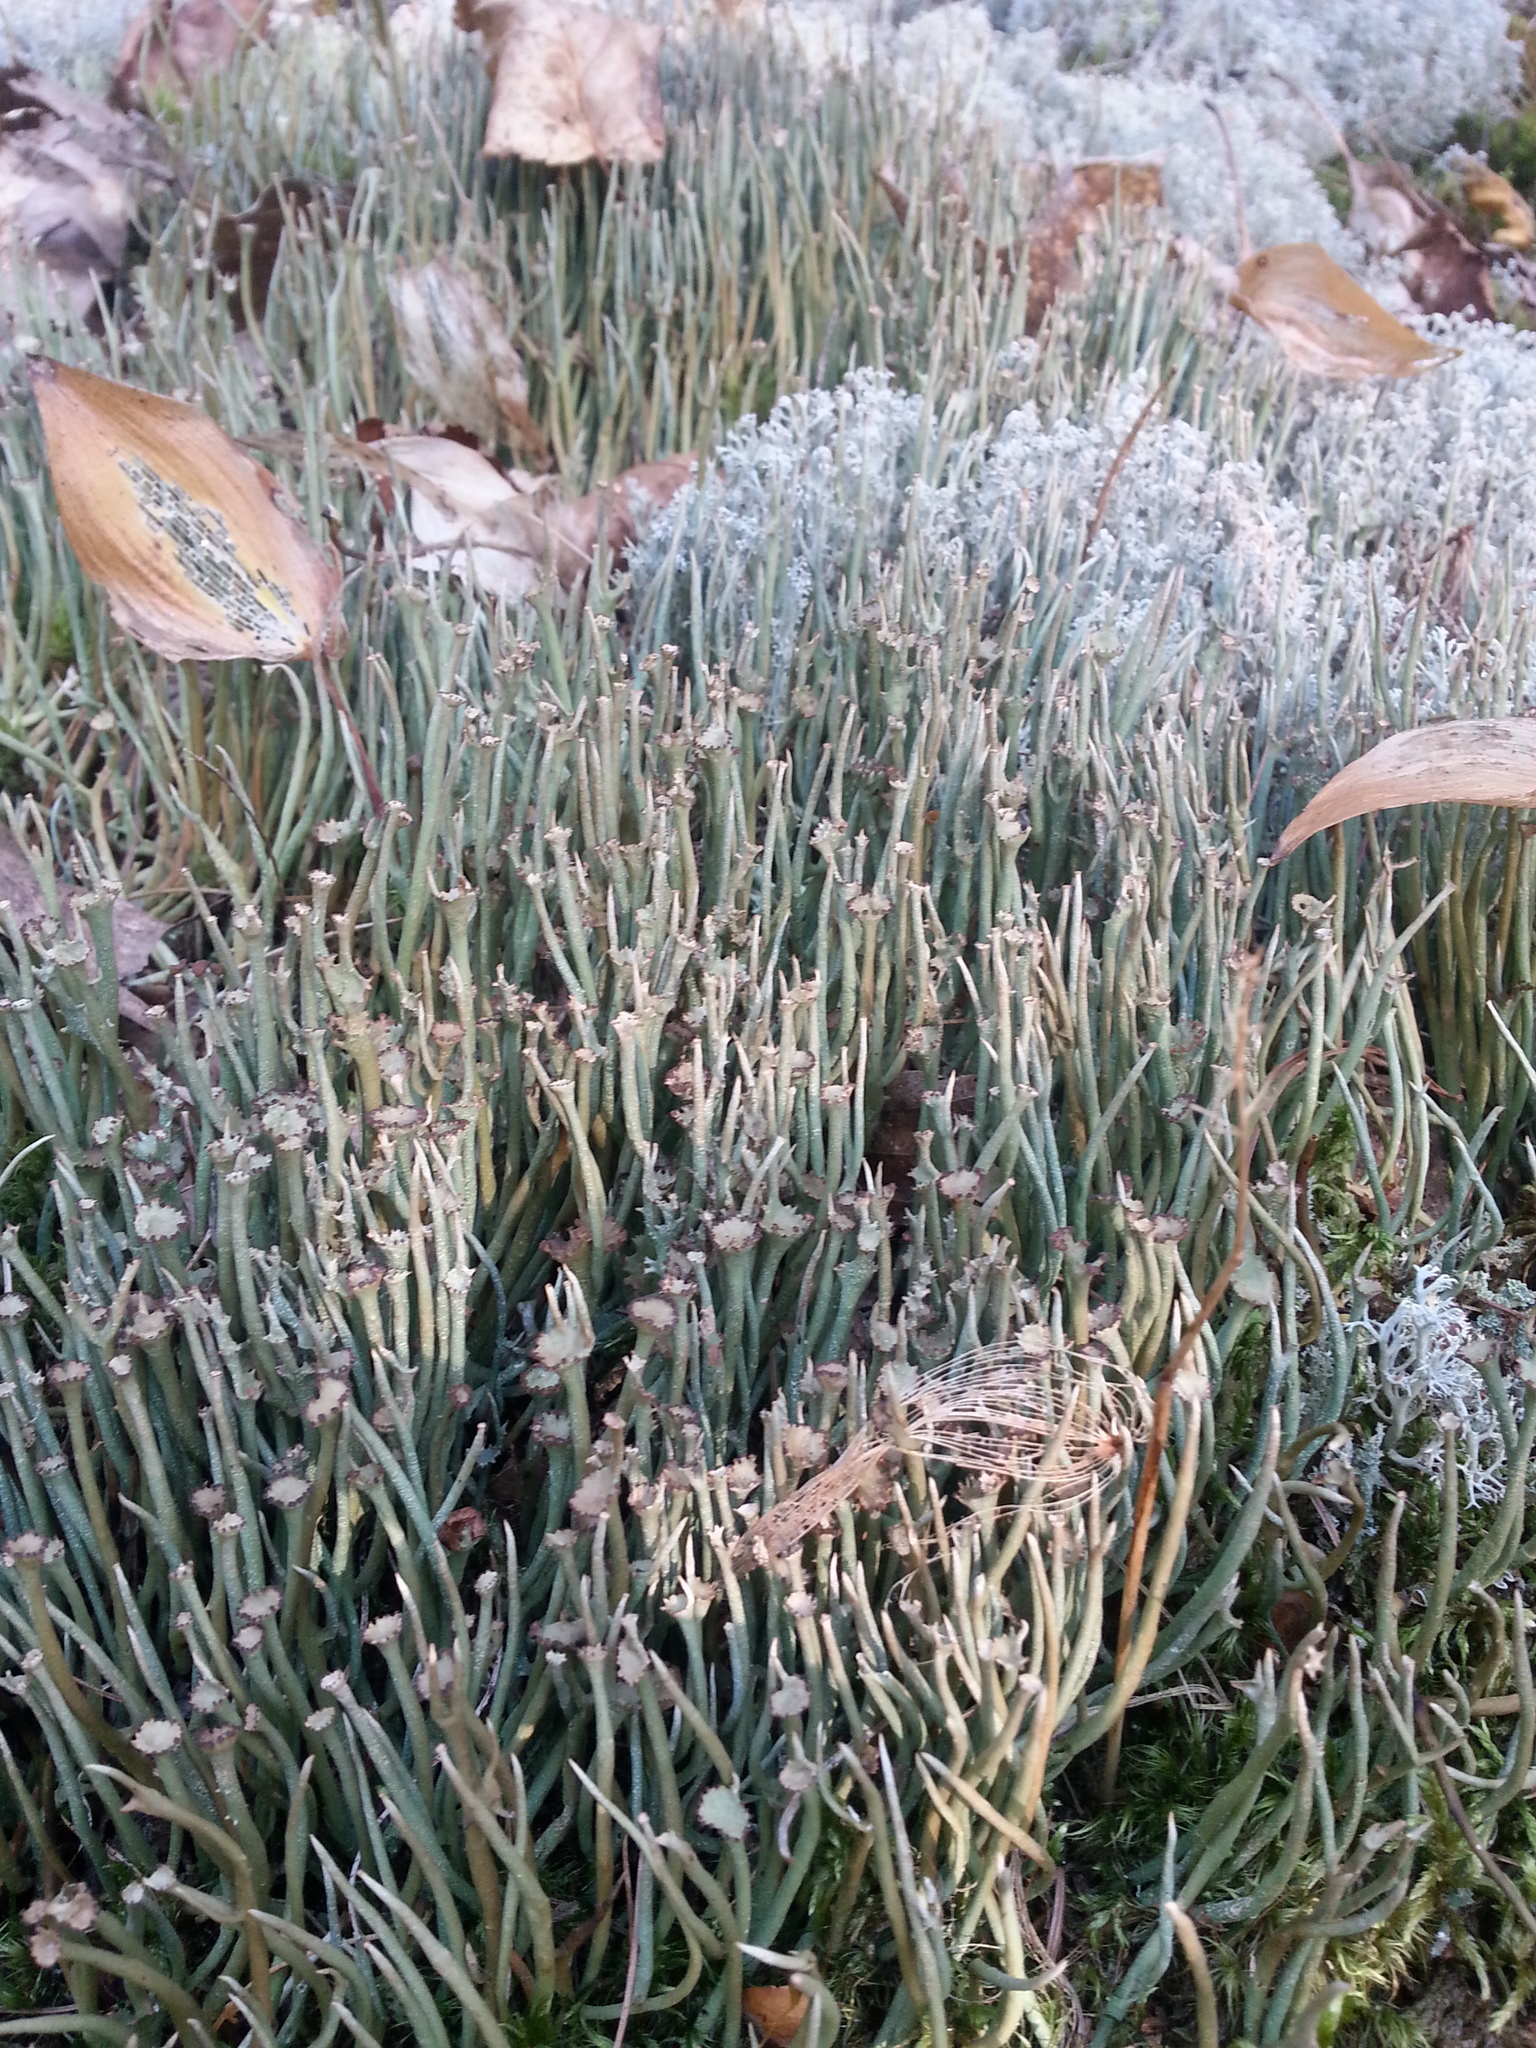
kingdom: Fungi
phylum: Ascomycota
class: Lecanoromycetes
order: Lecanorales
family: Cladoniaceae
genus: Cladonia
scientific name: Cladonia maxima
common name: Giant cladonia lichen
